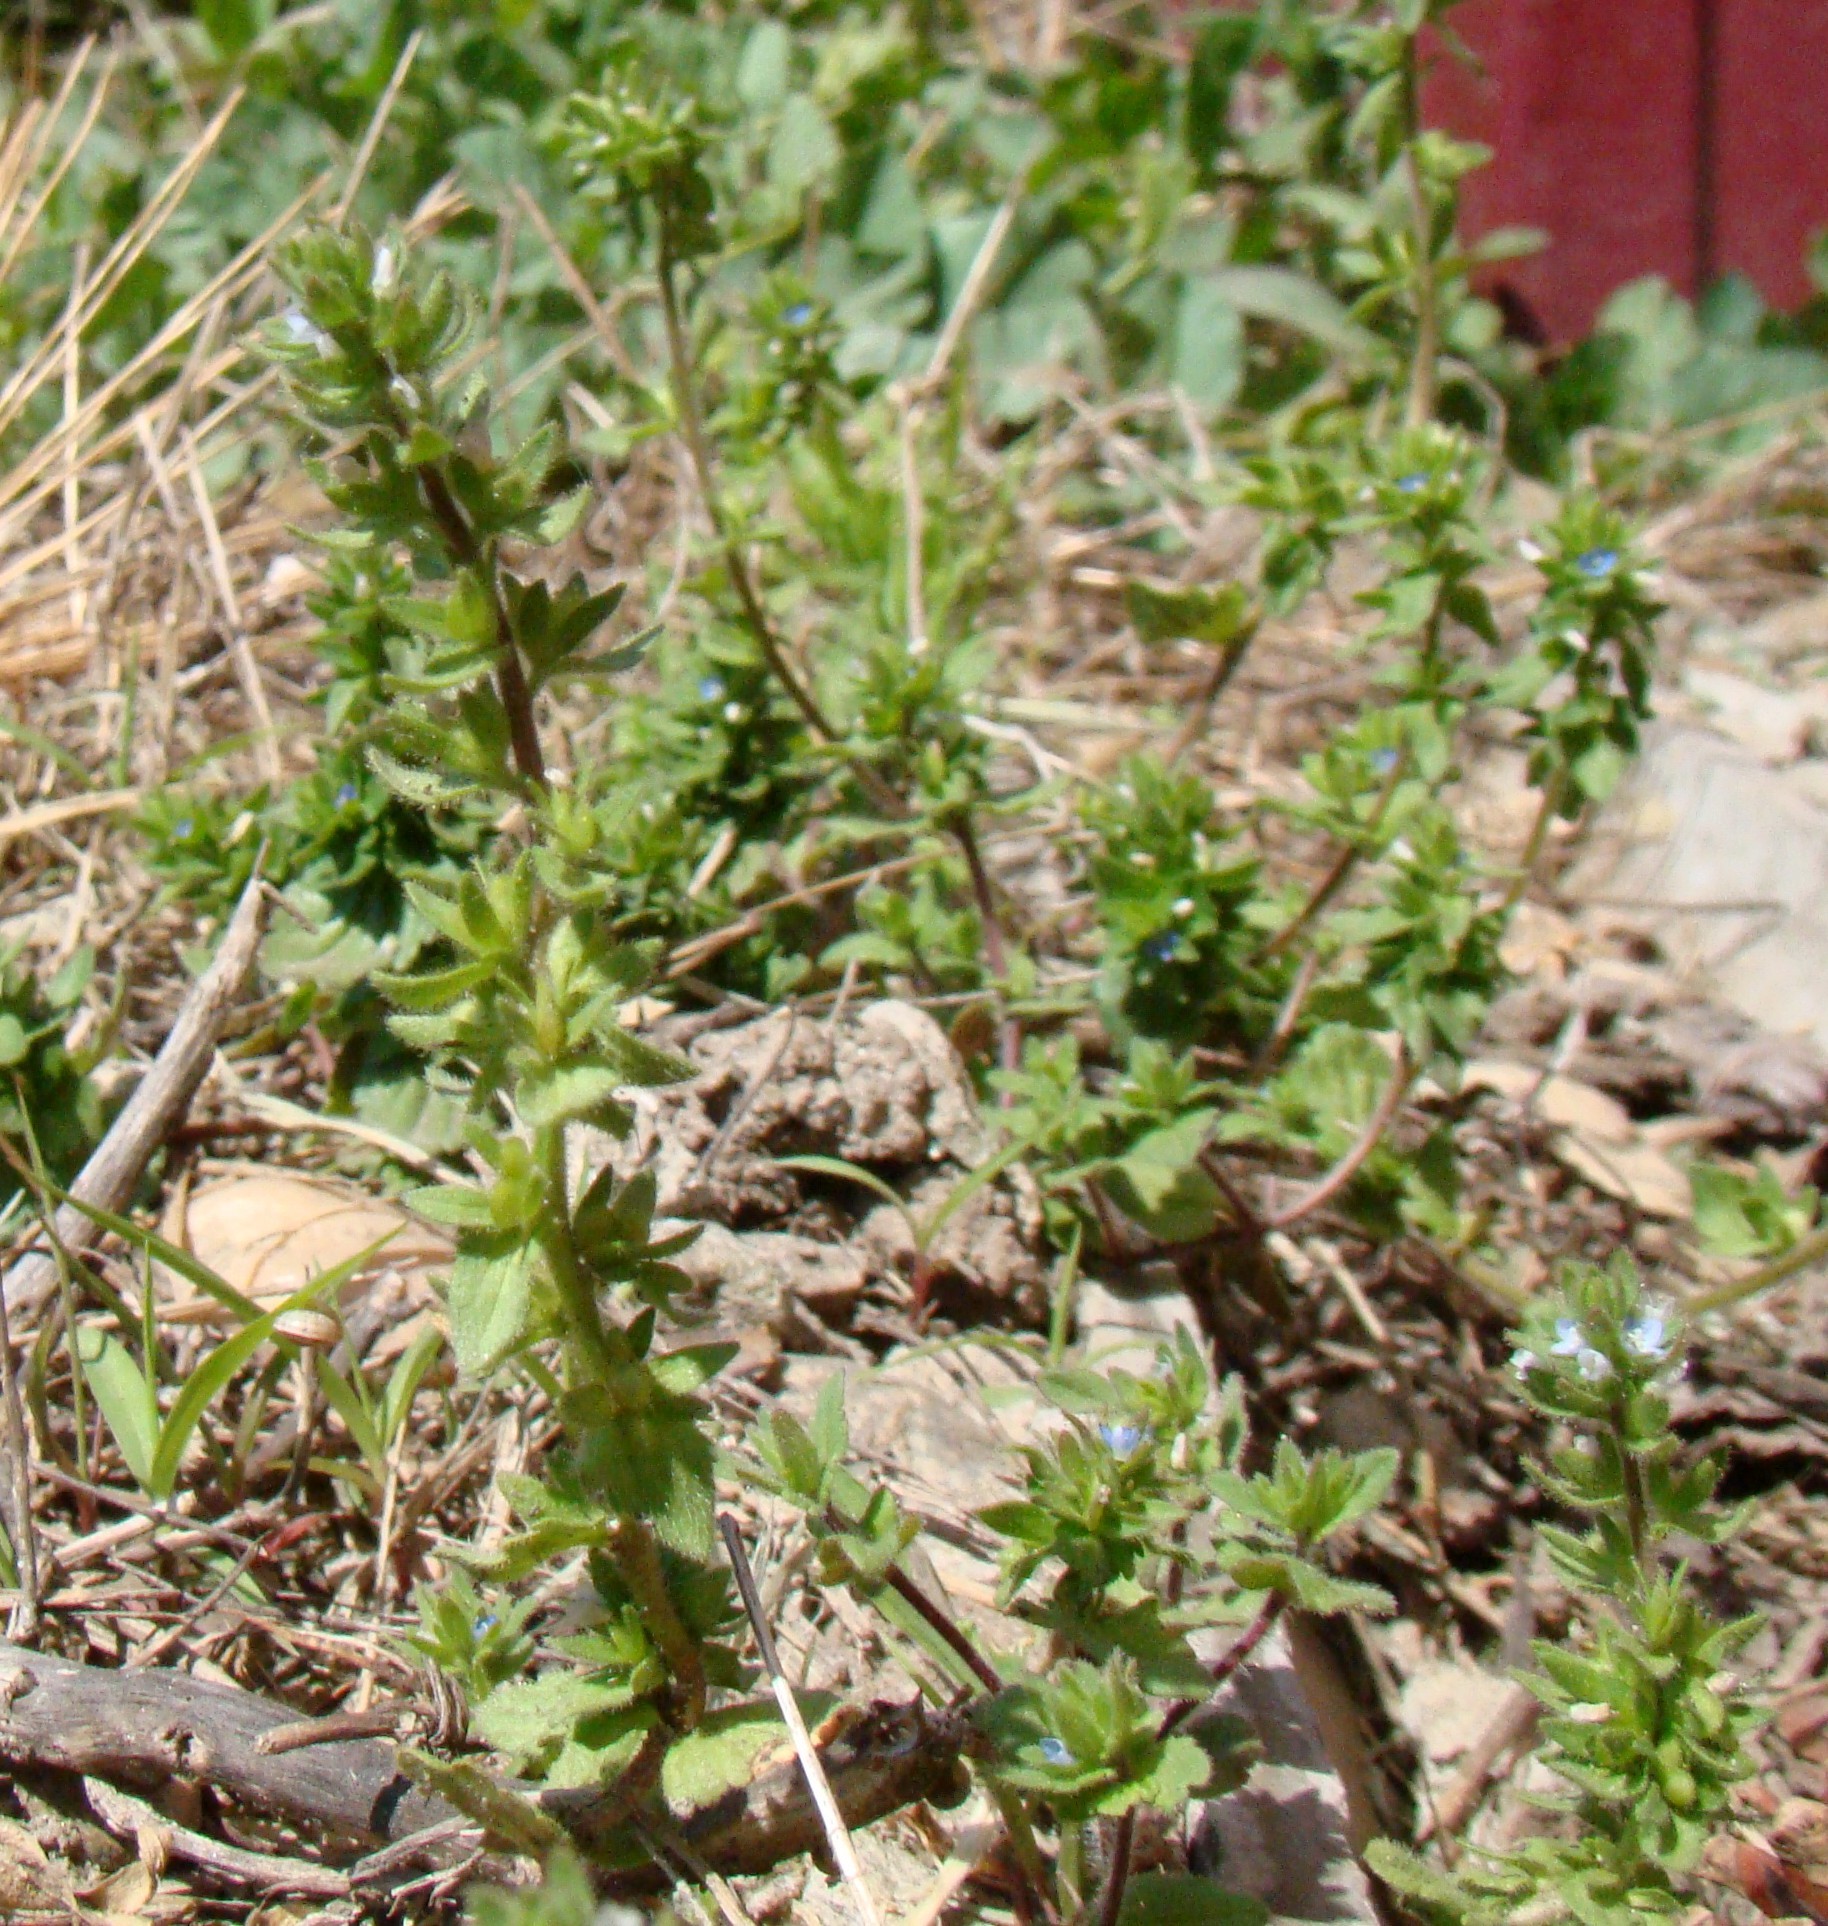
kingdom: Plantae
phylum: Tracheophyta
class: Magnoliopsida
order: Lamiales
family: Plantaginaceae
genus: Veronica
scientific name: Veronica arvensis
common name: Corn speedwell
